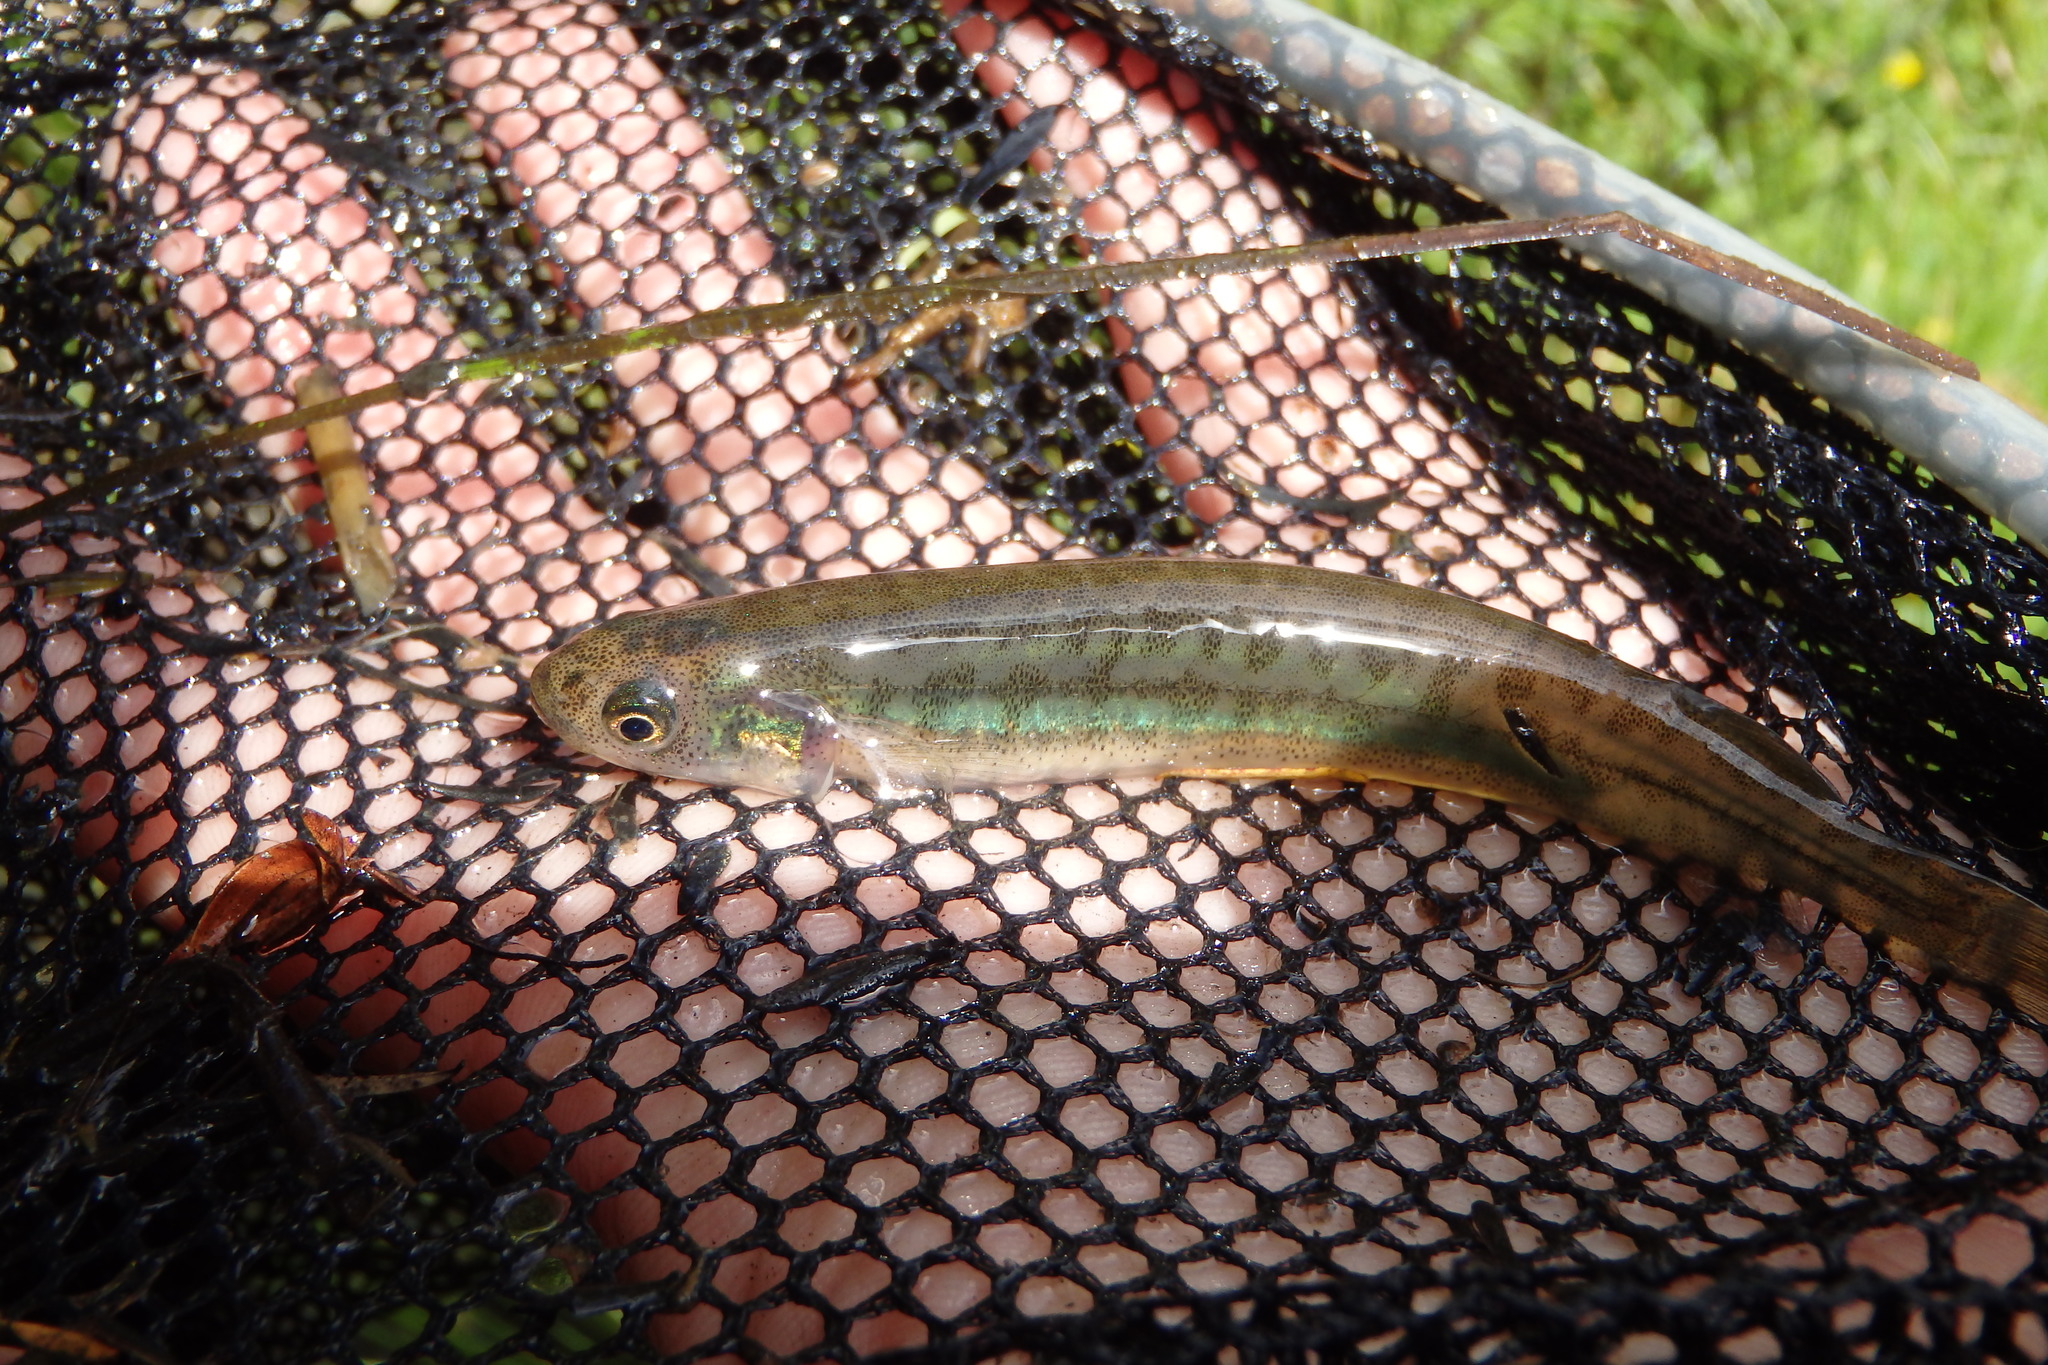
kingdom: Animalia
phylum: Chordata
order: Osmeriformes
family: Galaxiidae
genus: Galaxias
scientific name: Galaxias maculatus
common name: Common galaxias
